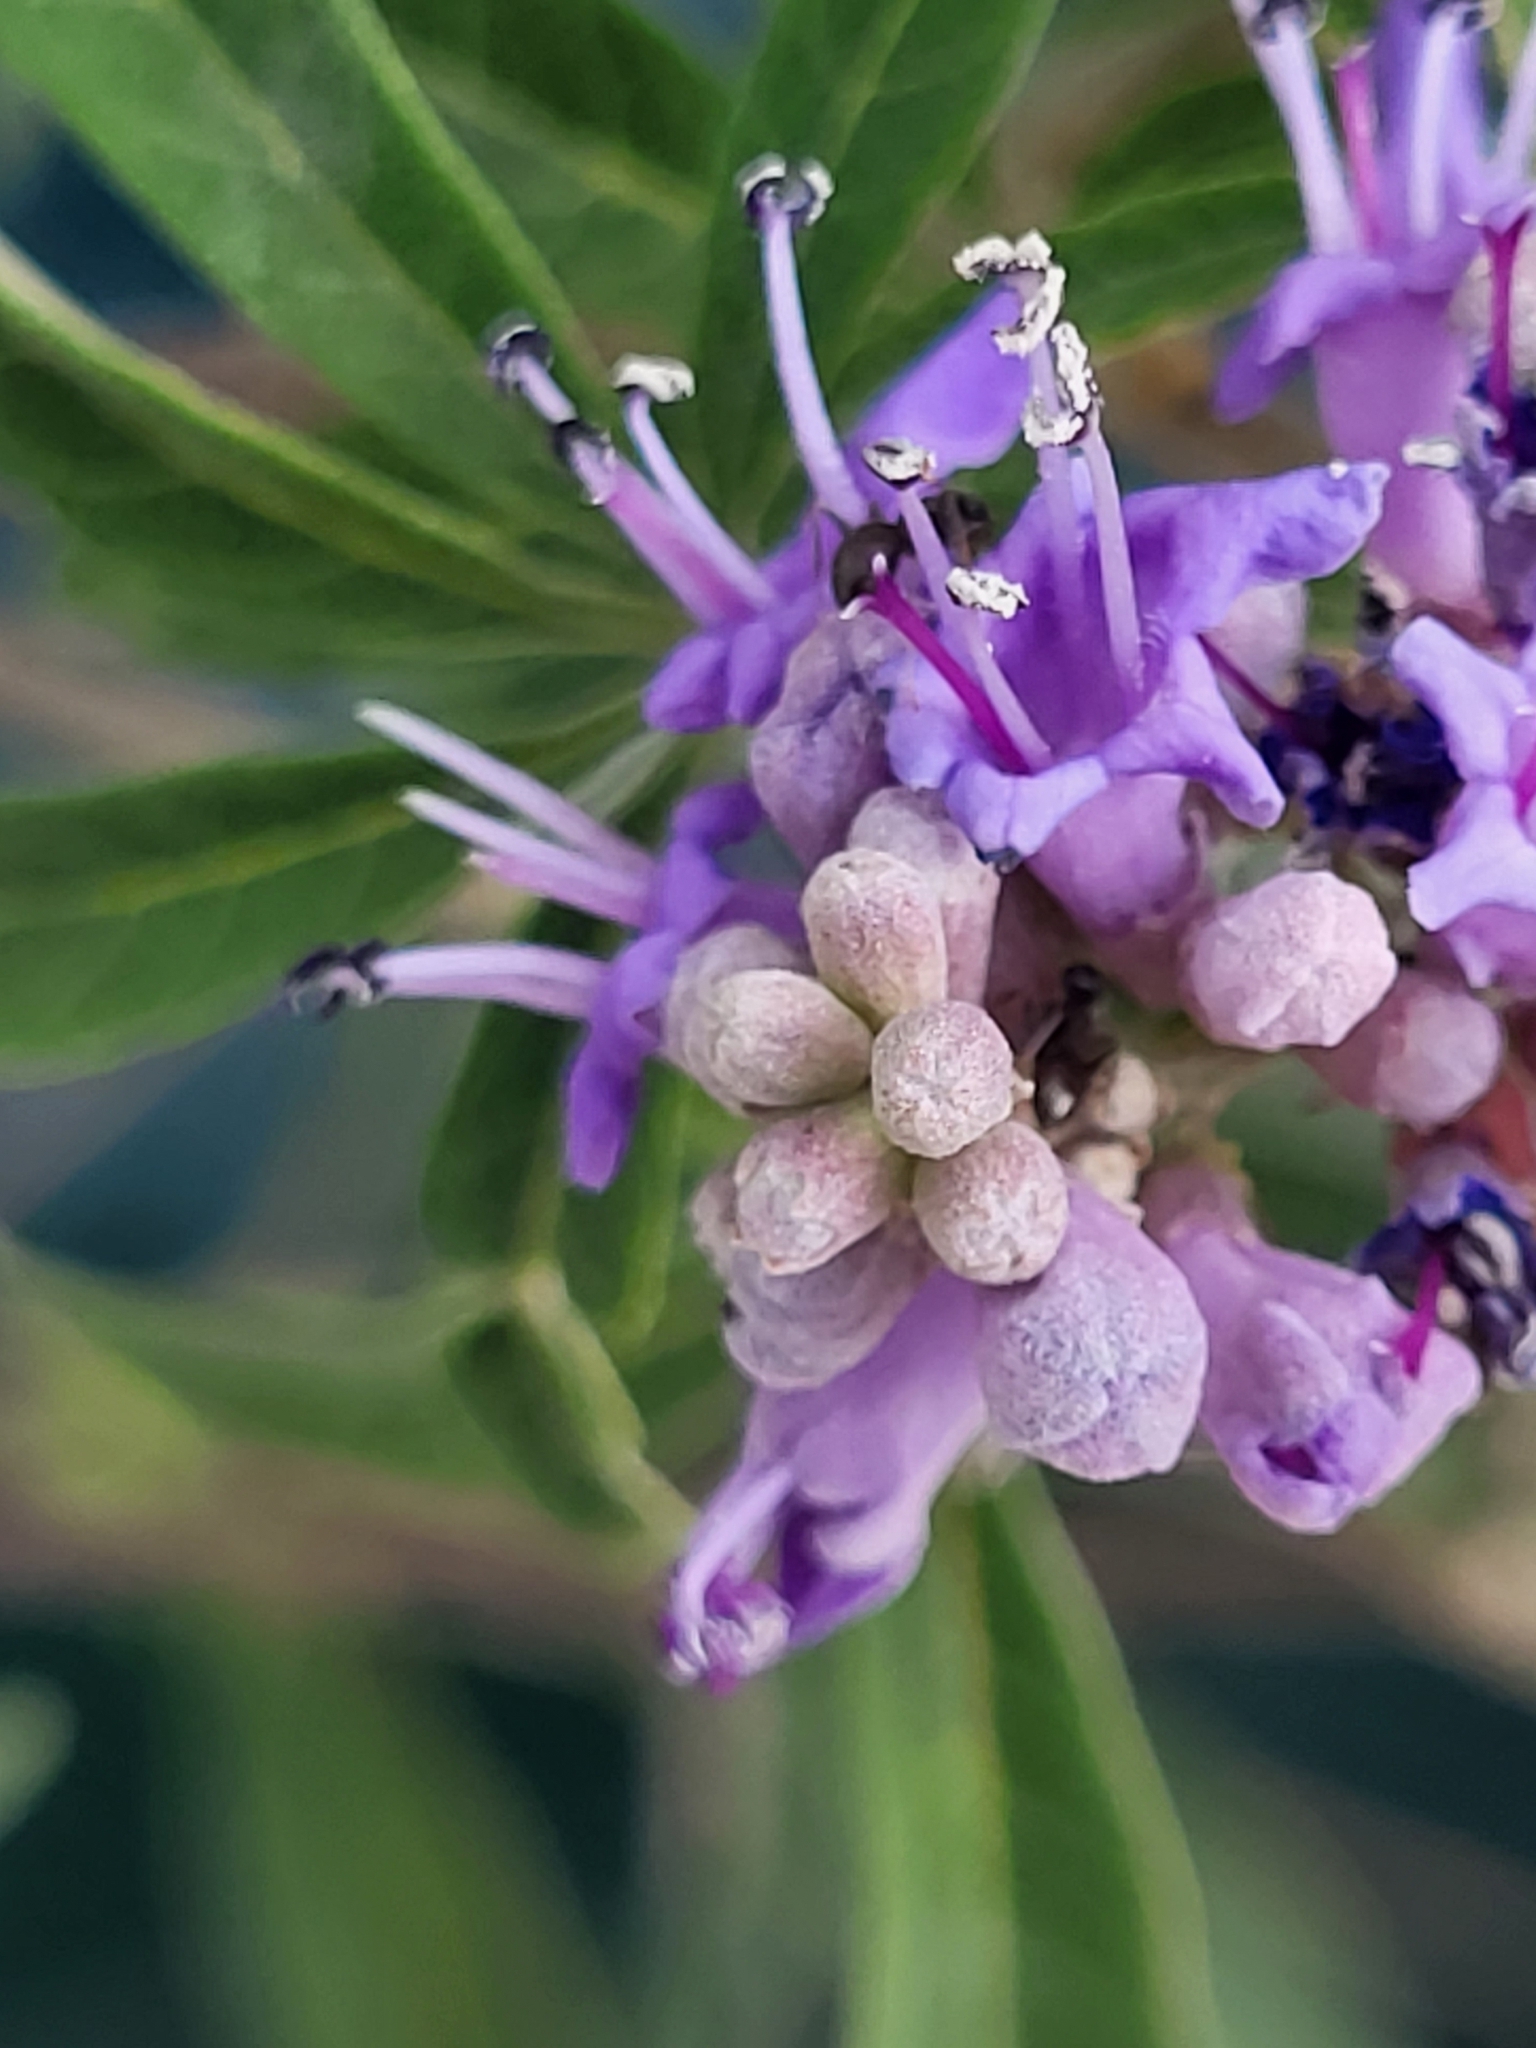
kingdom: Plantae
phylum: Tracheophyta
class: Magnoliopsida
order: Lamiales
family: Lamiaceae
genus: Vitex
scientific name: Vitex agnus-castus
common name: Chasteberry
